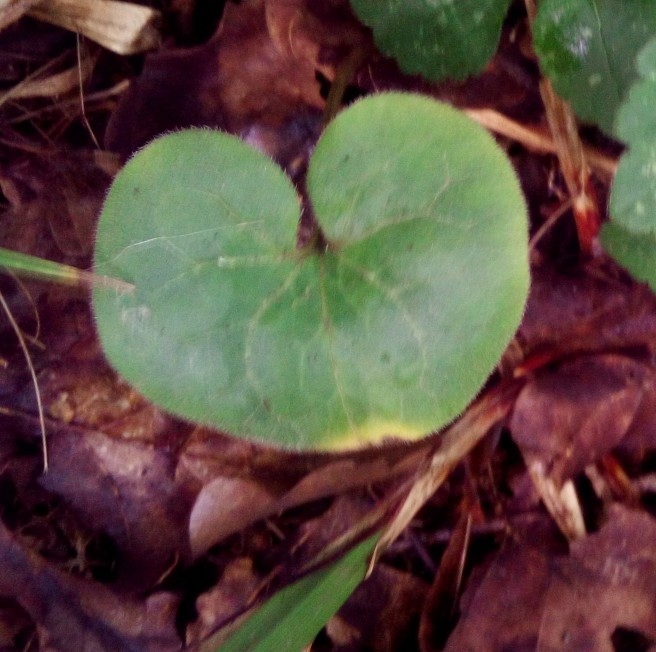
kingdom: Plantae
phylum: Tracheophyta
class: Magnoliopsida
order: Piperales
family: Aristolochiaceae
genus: Asarum
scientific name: Asarum europaeum
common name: Asarabacca
